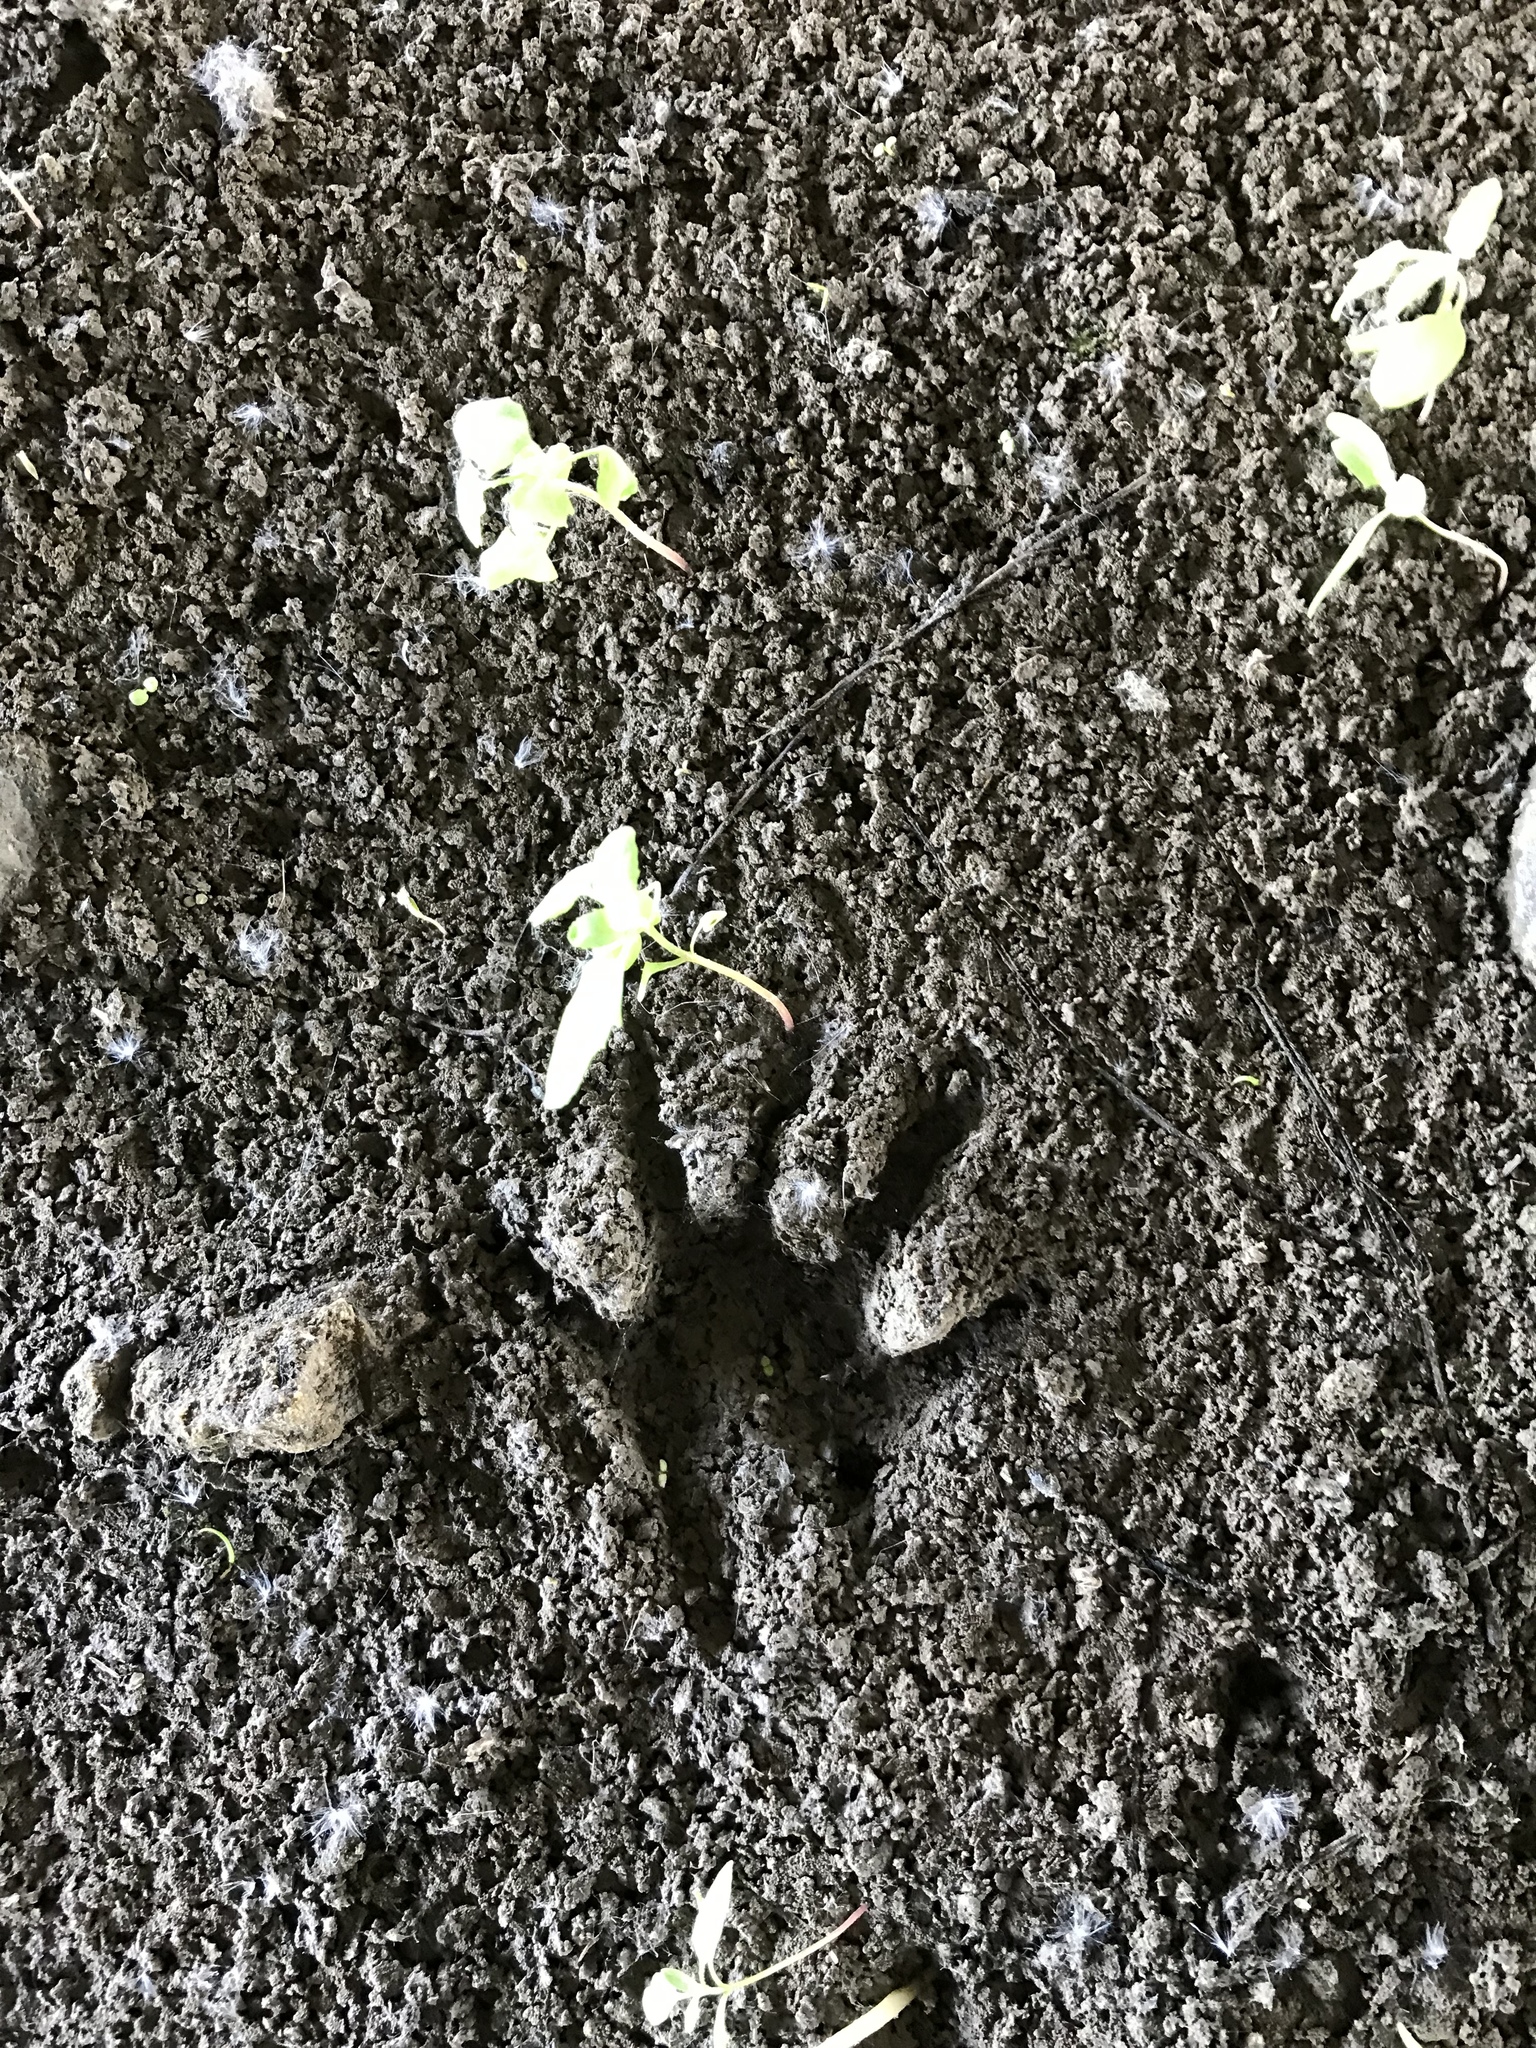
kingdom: Animalia
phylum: Chordata
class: Mammalia
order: Carnivora
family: Procyonidae
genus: Procyon
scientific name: Procyon lotor
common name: Raccoon
